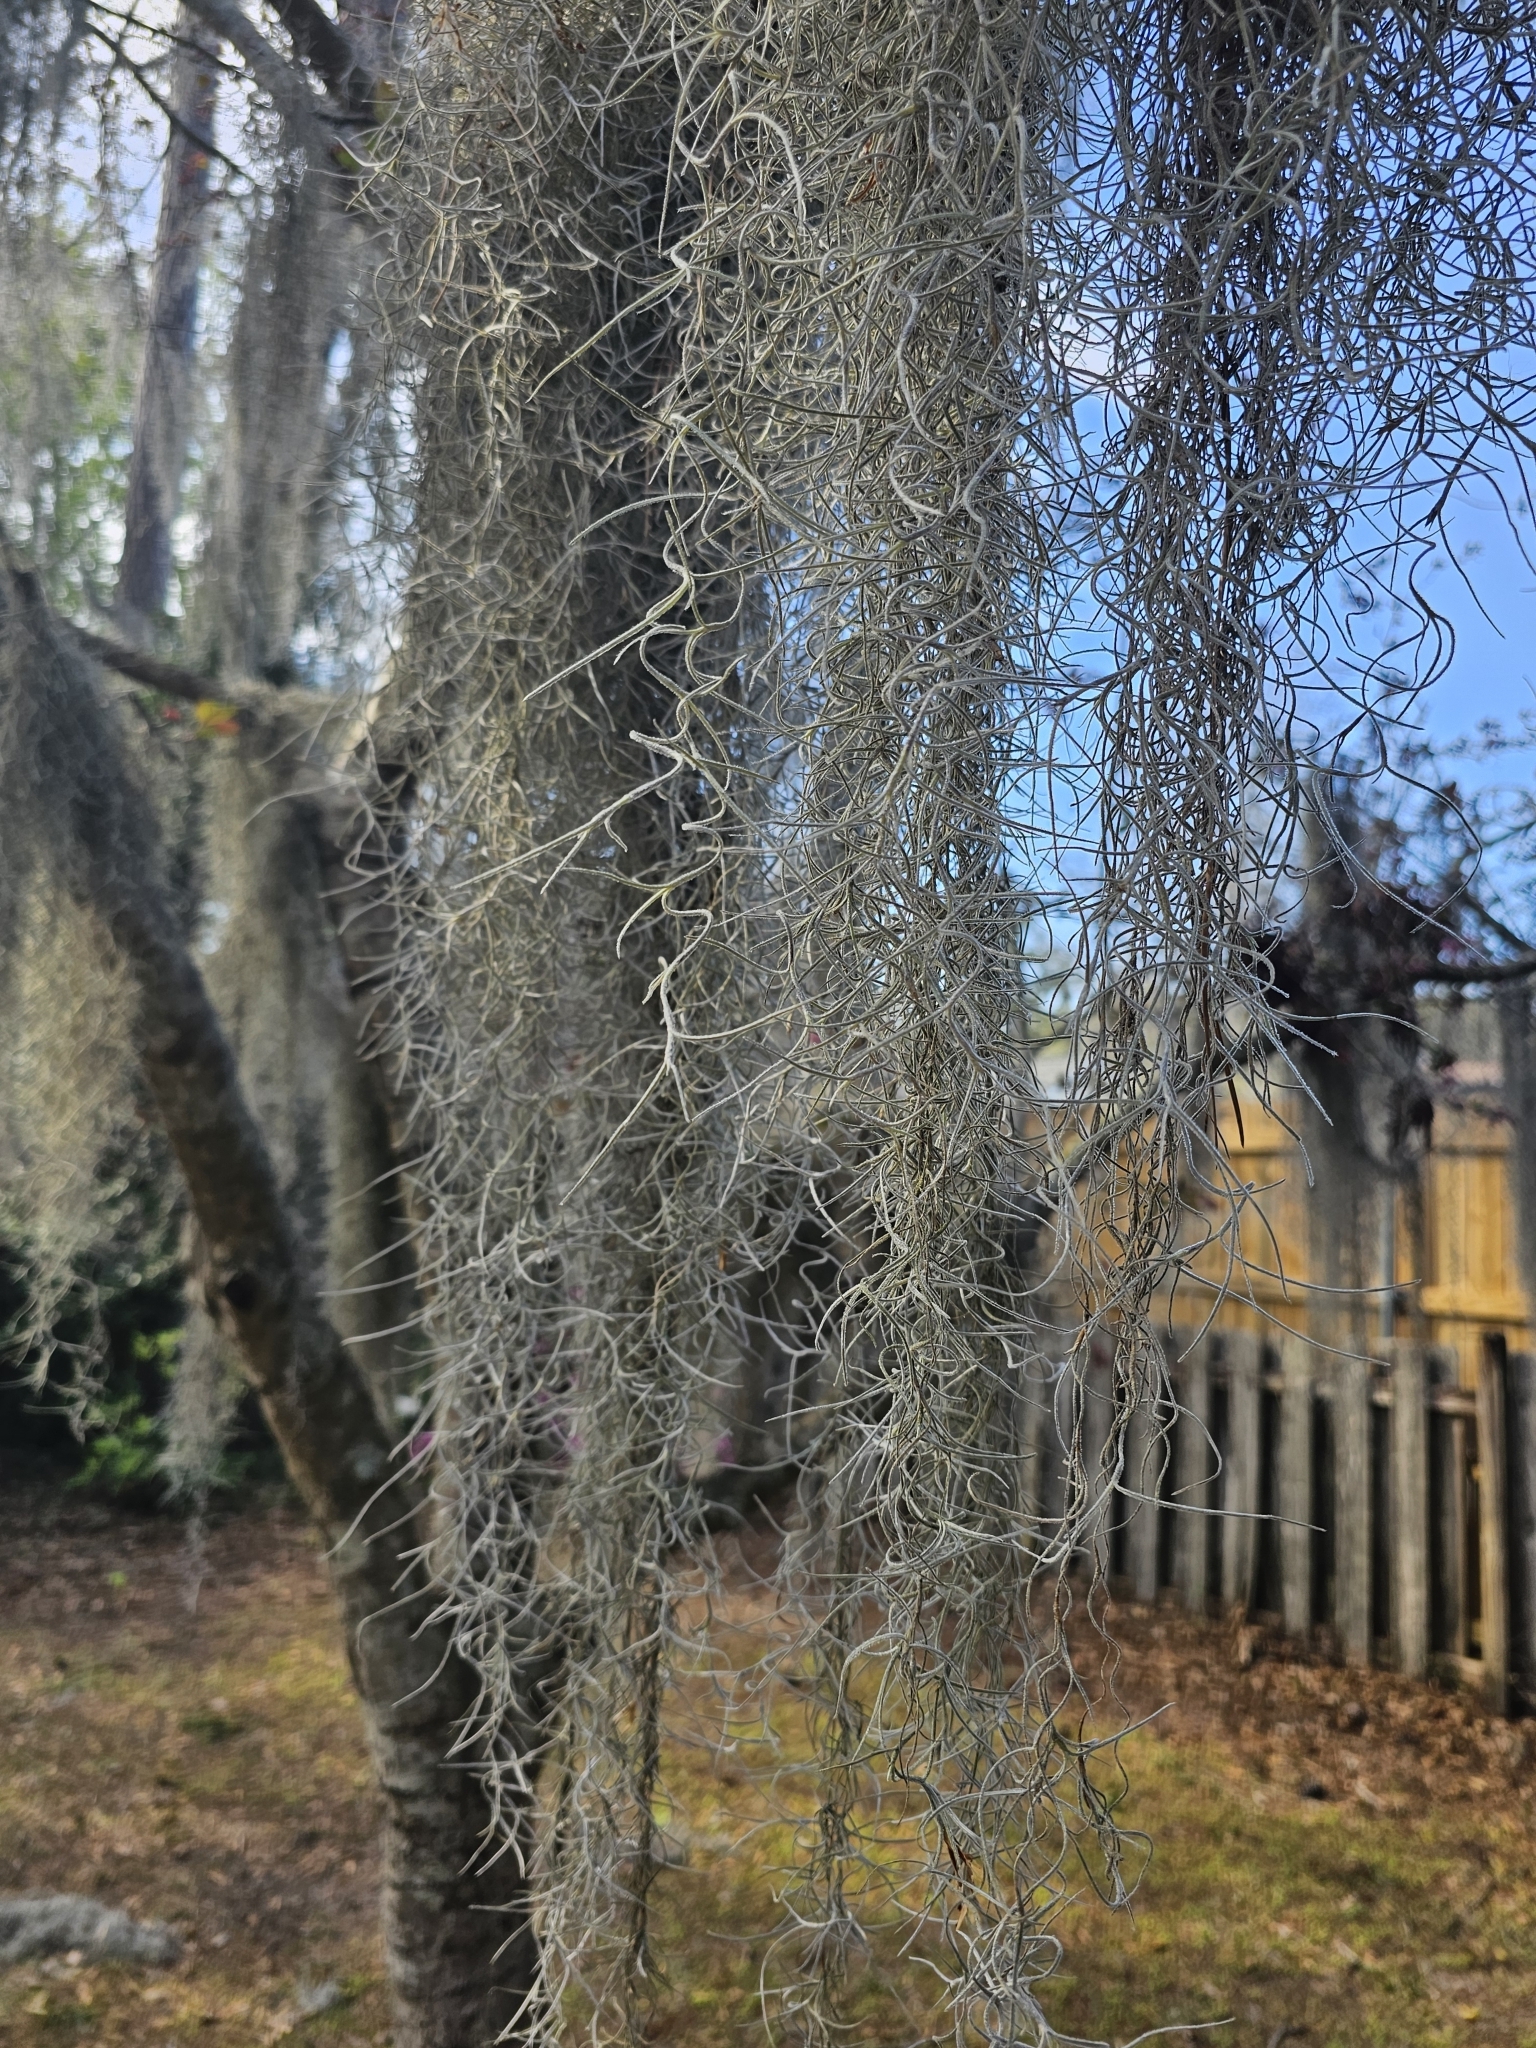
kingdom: Plantae
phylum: Tracheophyta
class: Liliopsida
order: Poales
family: Bromeliaceae
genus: Tillandsia
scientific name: Tillandsia usneoides
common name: Spanish moss
